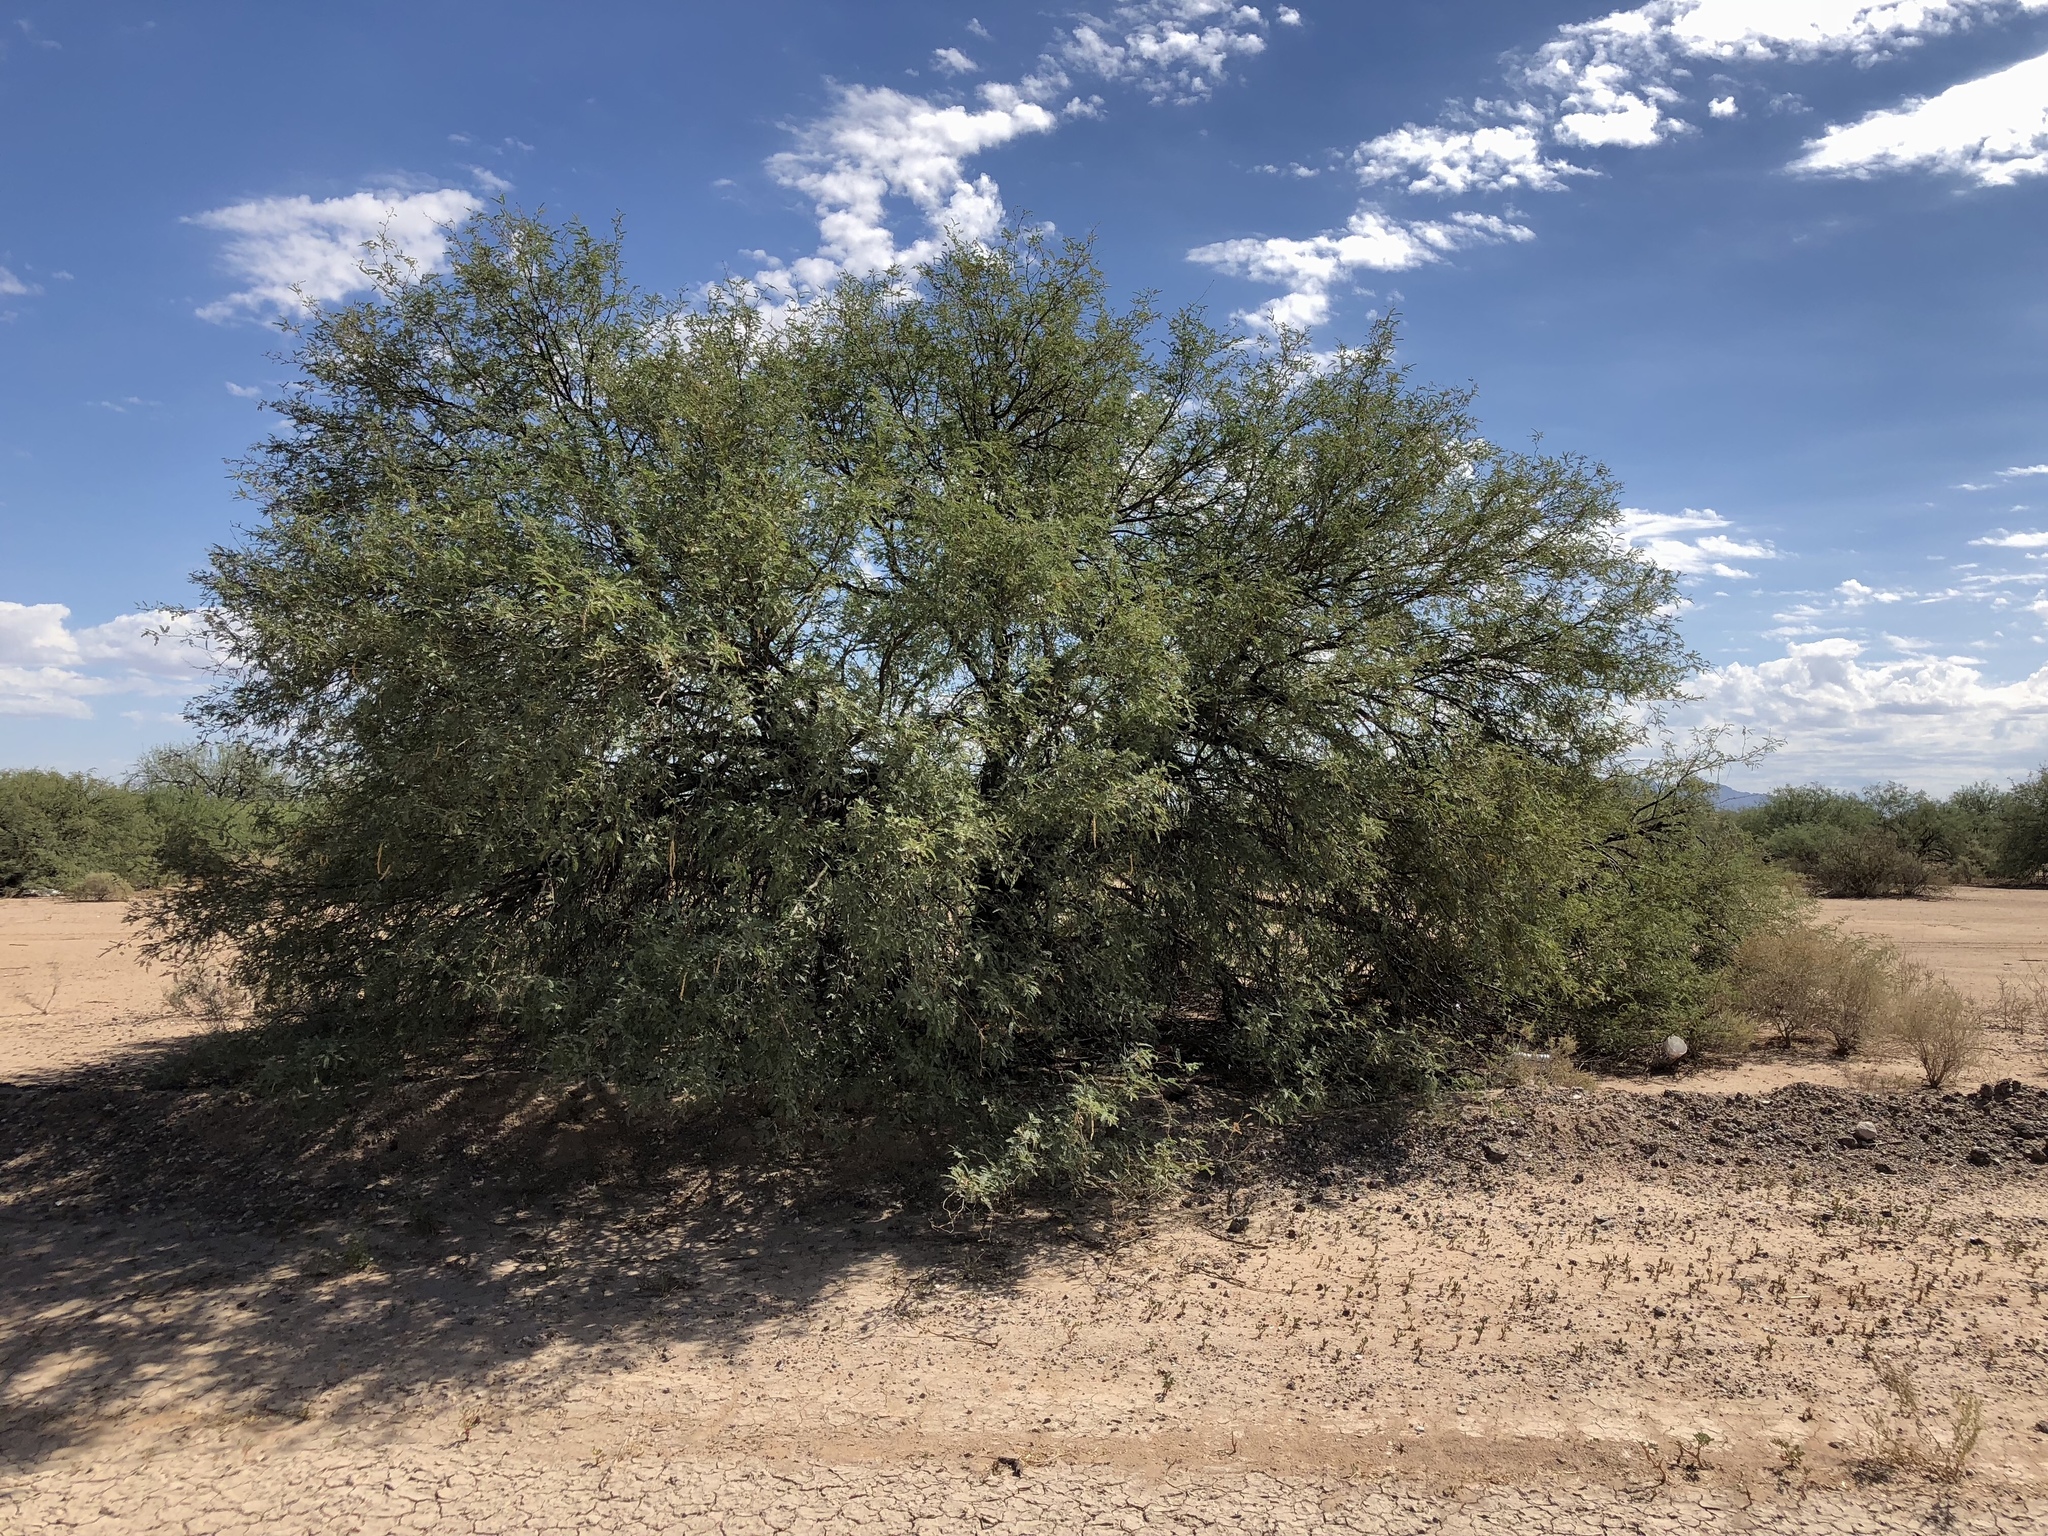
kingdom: Plantae
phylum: Tracheophyta
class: Magnoliopsida
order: Fabales
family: Fabaceae
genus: Prosopis
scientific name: Prosopis velutina
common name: Velvet mesquite
